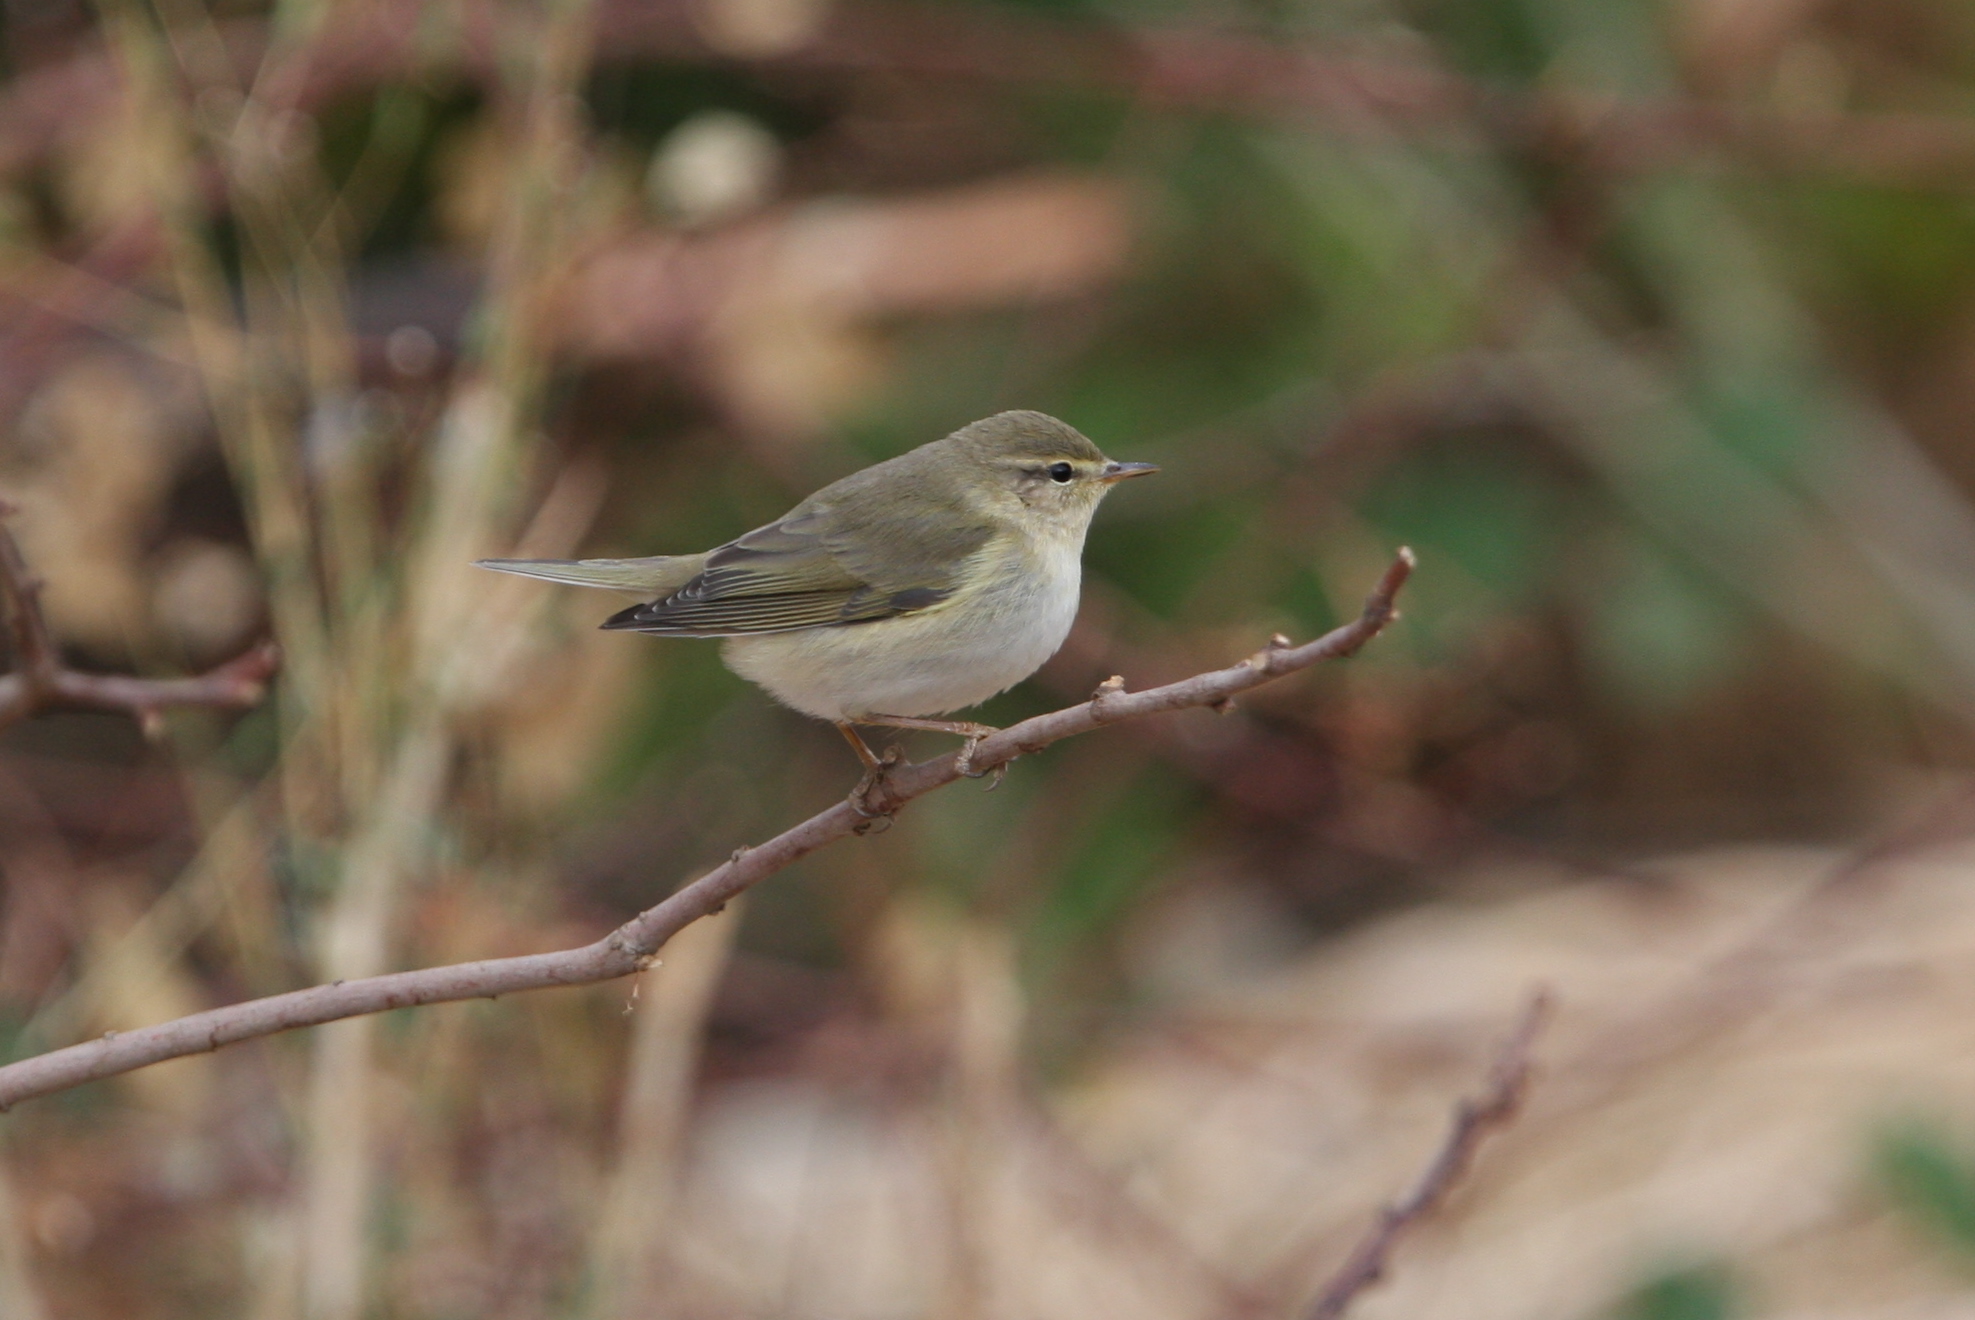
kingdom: Animalia
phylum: Chordata
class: Aves
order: Passeriformes
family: Phylloscopidae
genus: Phylloscopus
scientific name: Phylloscopus collybita
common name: Common chiffchaff
